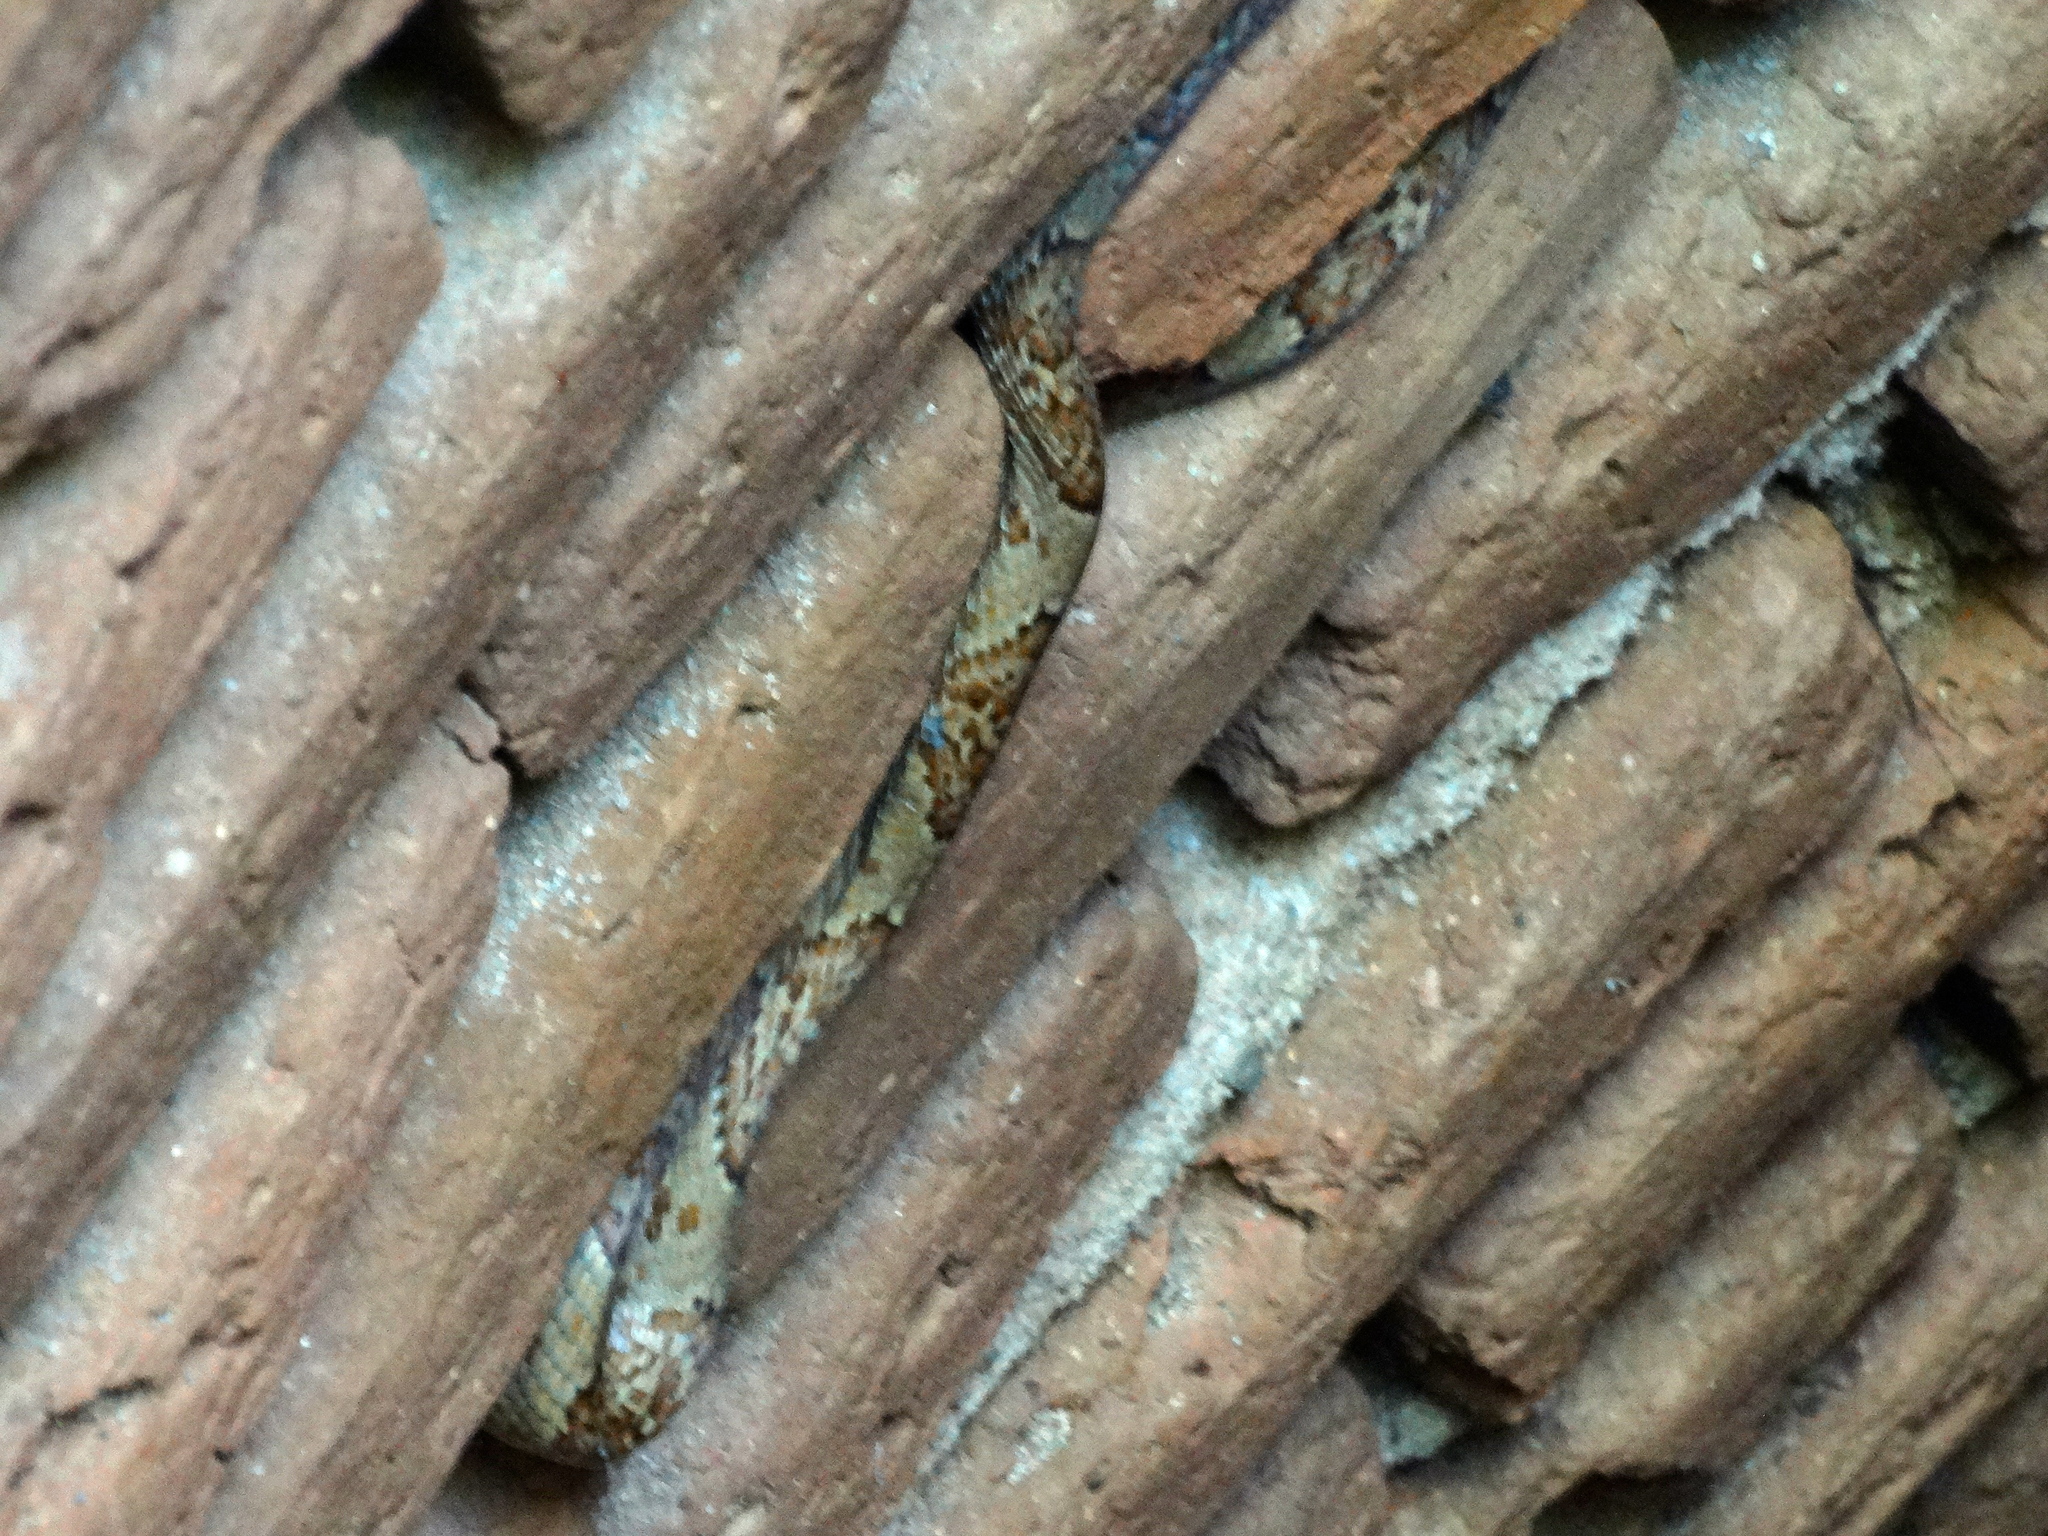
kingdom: Animalia
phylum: Chordata
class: Squamata
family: Colubridae
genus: Trimorphodon
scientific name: Trimorphodon paucimaculatus
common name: Sinaloan lyresnake
